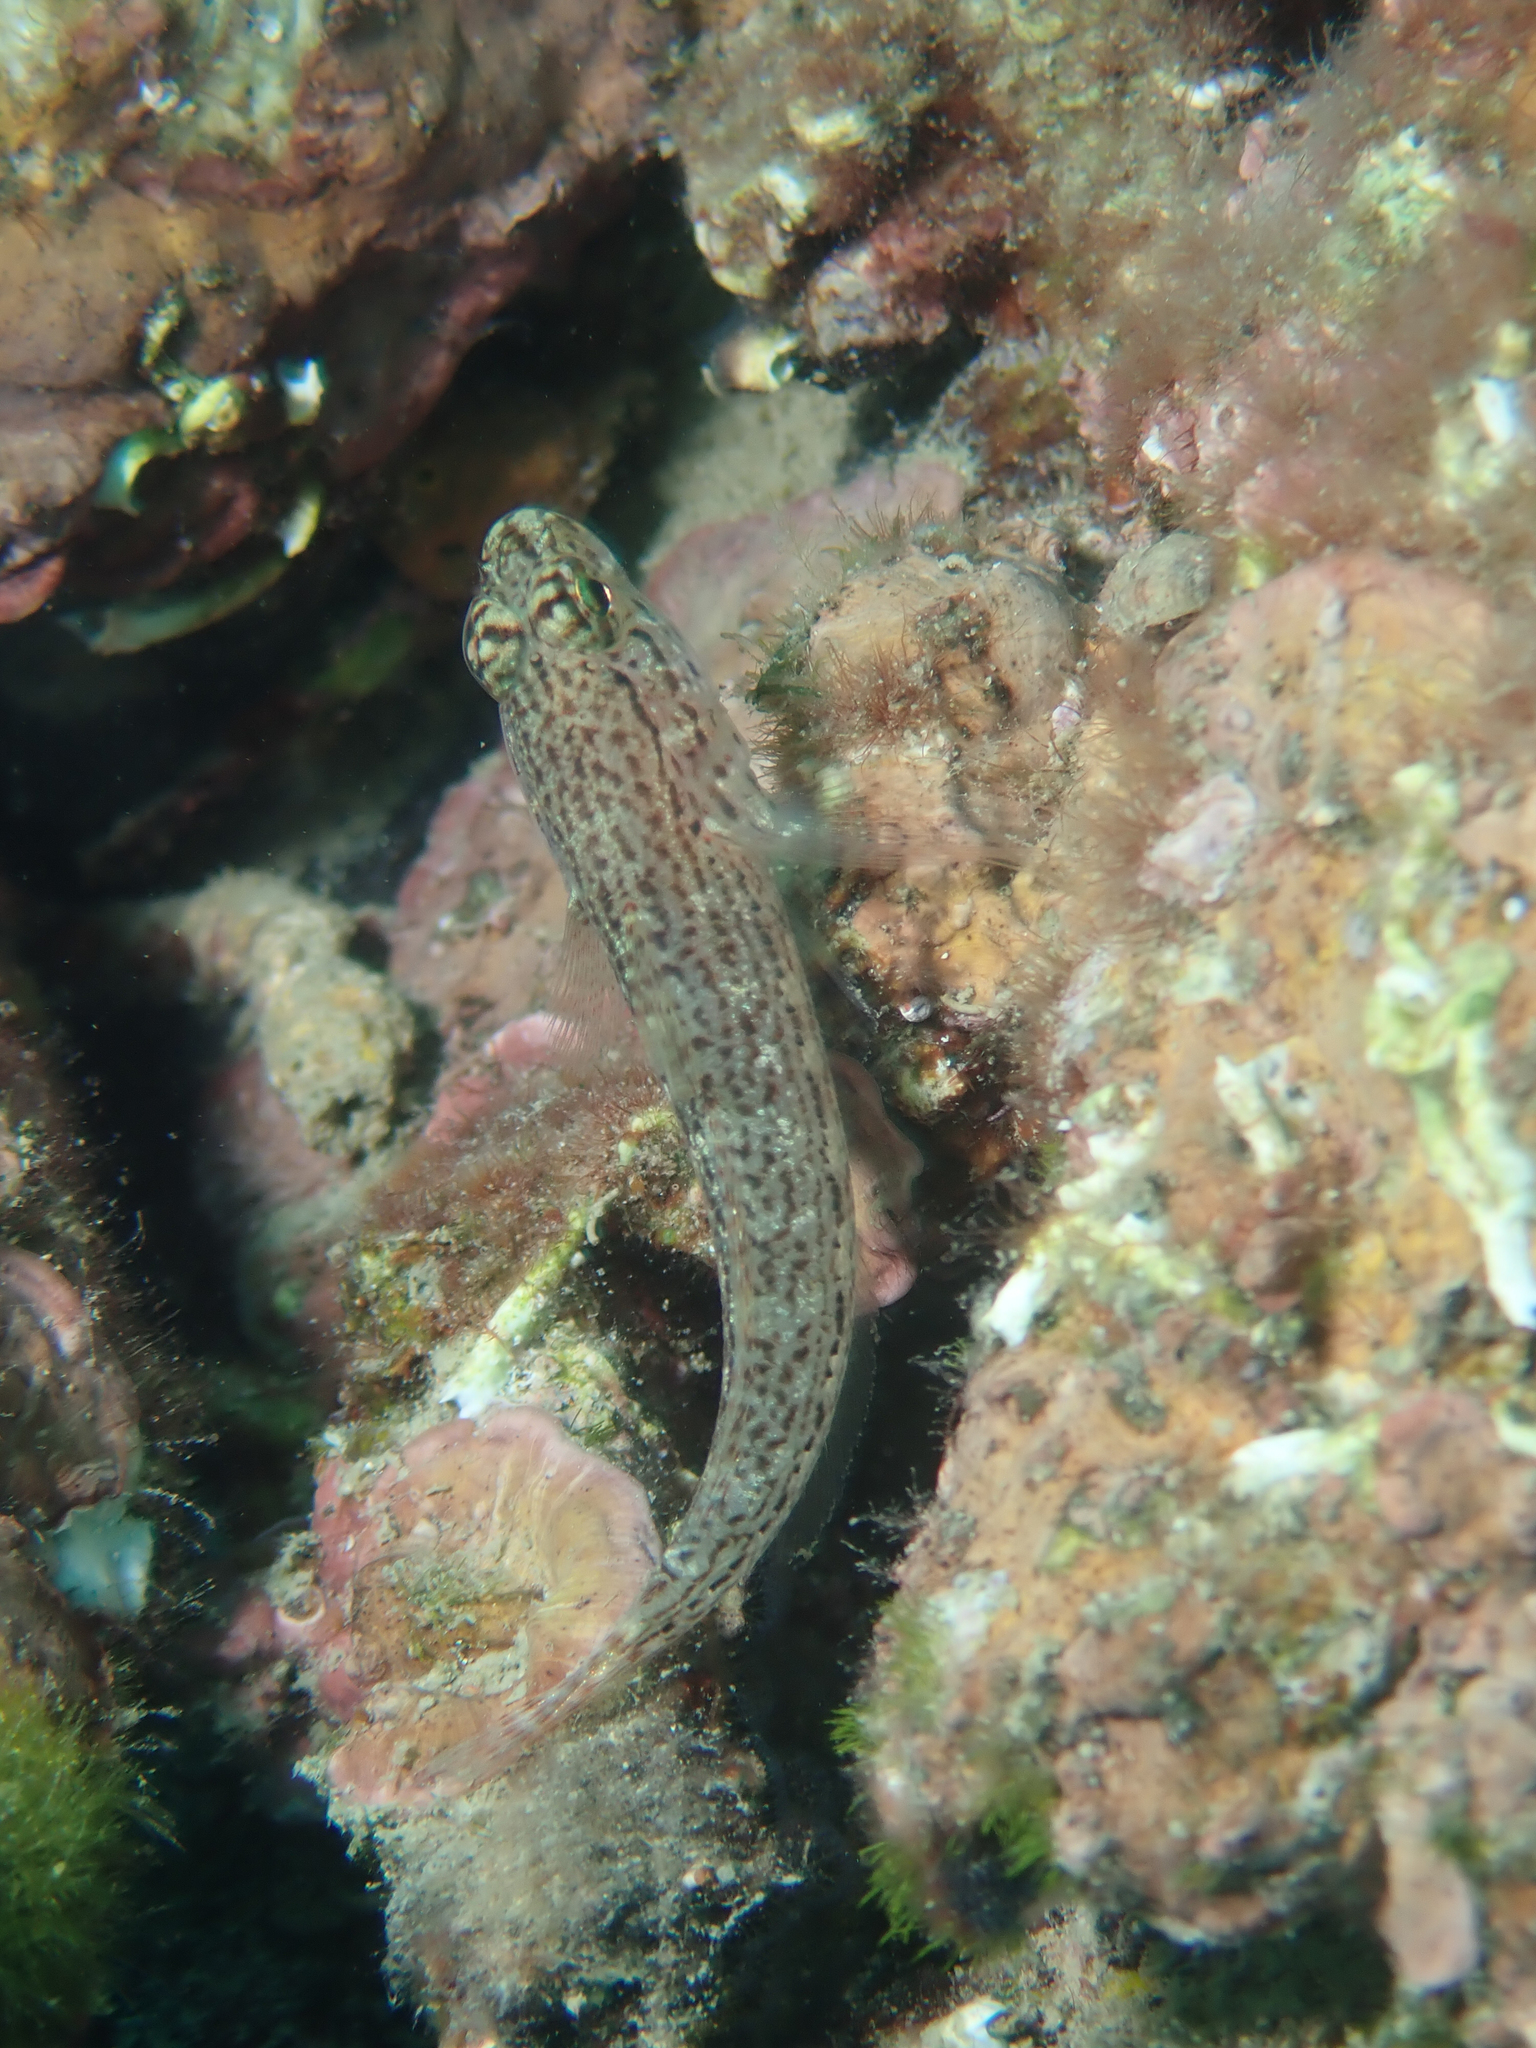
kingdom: Animalia
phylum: Chordata
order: Perciformes
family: Gobiidae
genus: Gobius
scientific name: Gobius fallax
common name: Sarato's goby
